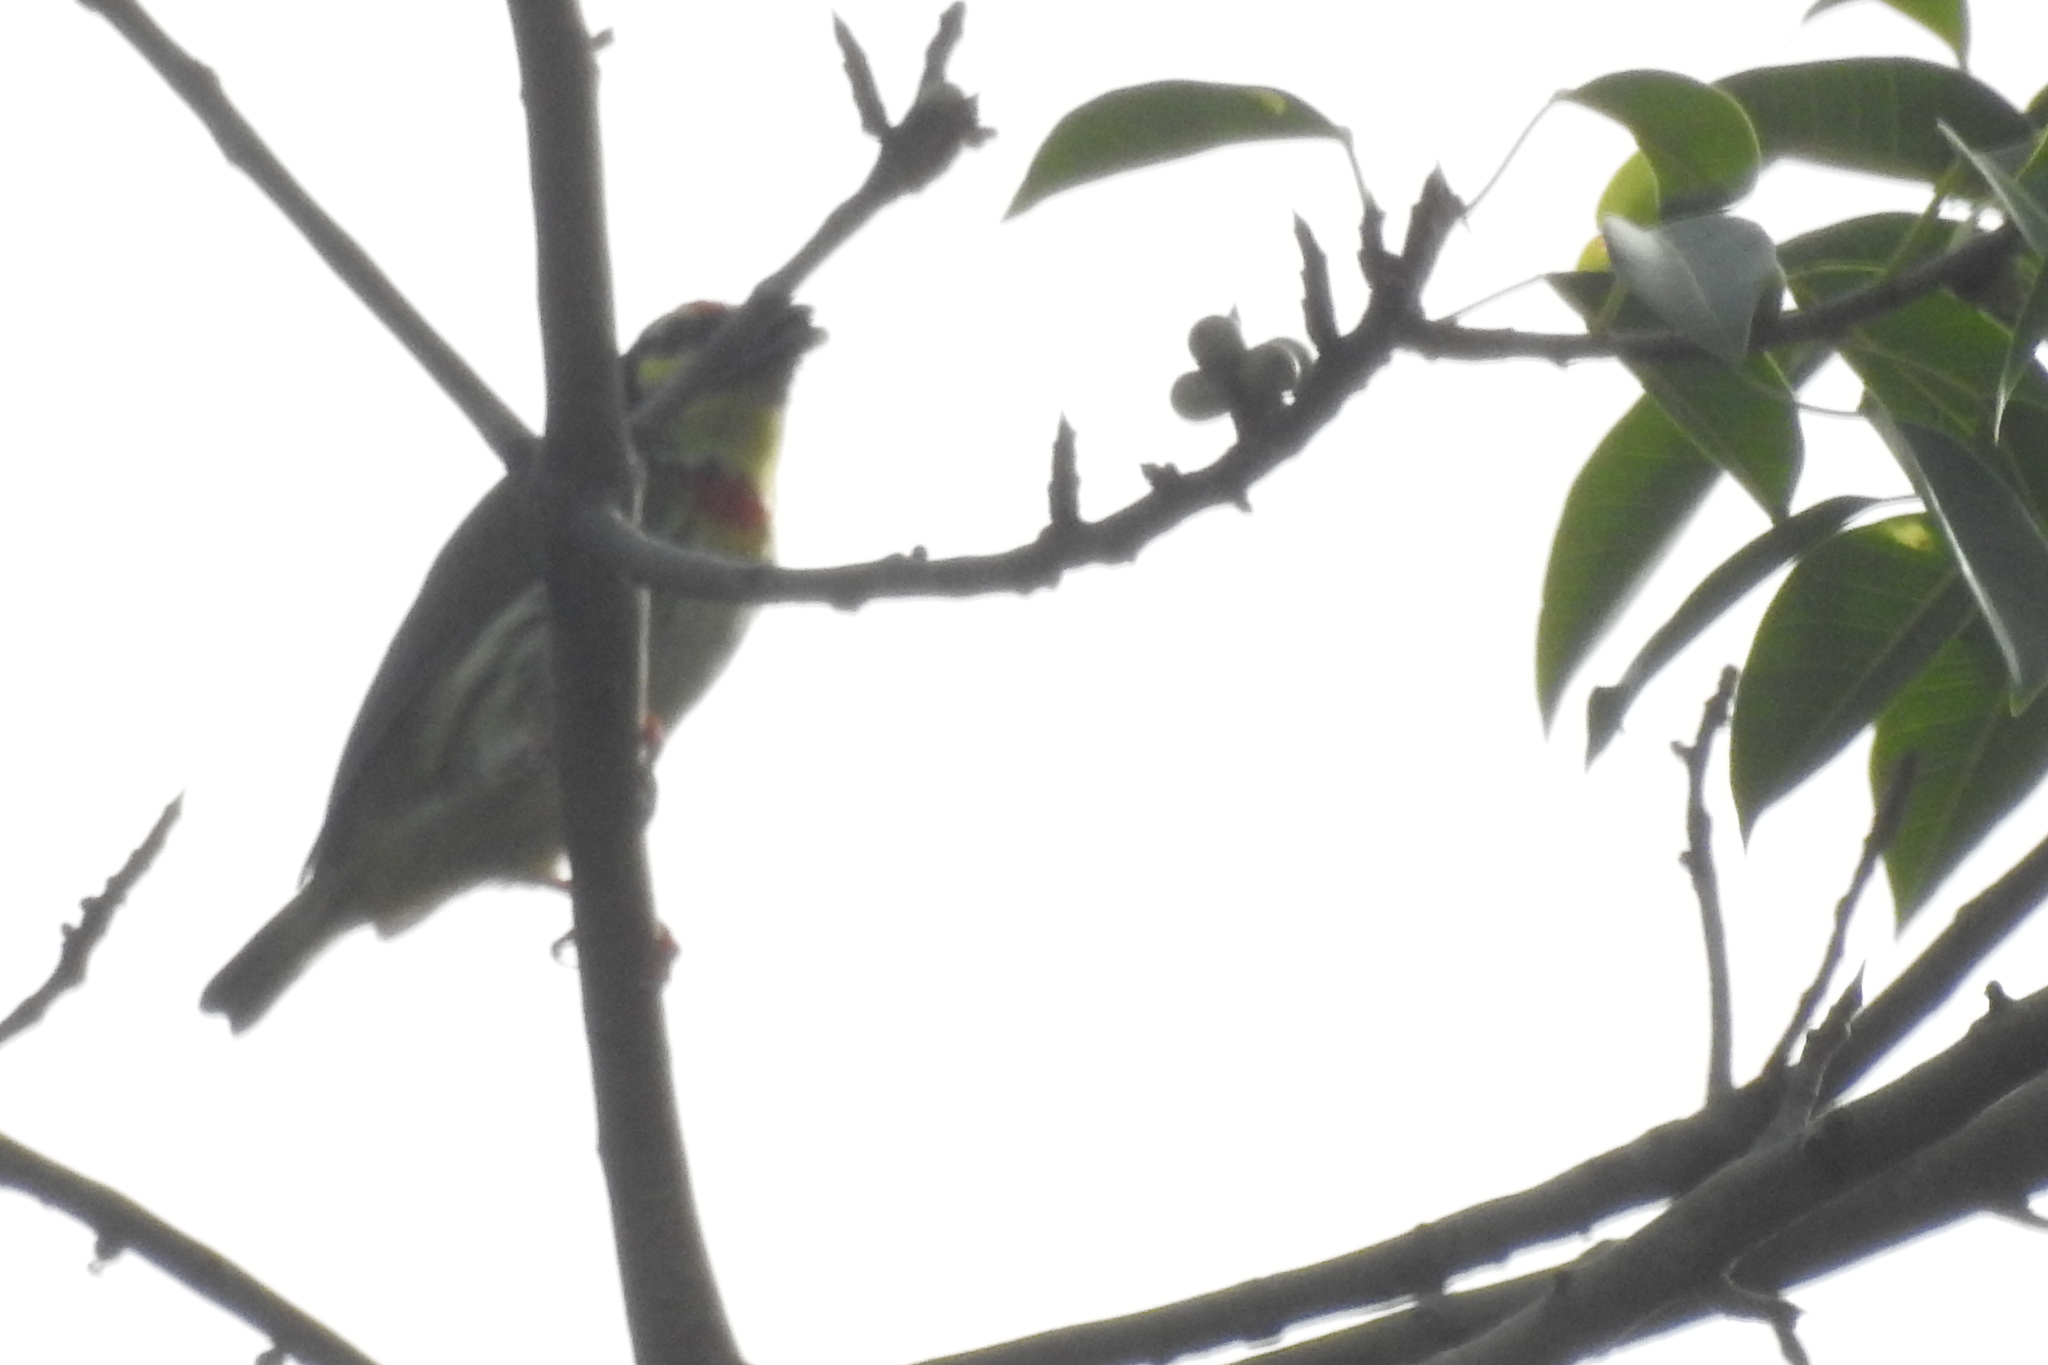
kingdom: Animalia
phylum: Chordata
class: Aves
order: Piciformes
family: Megalaimidae
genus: Psilopogon
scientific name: Psilopogon haemacephalus
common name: Coppersmith barbet
